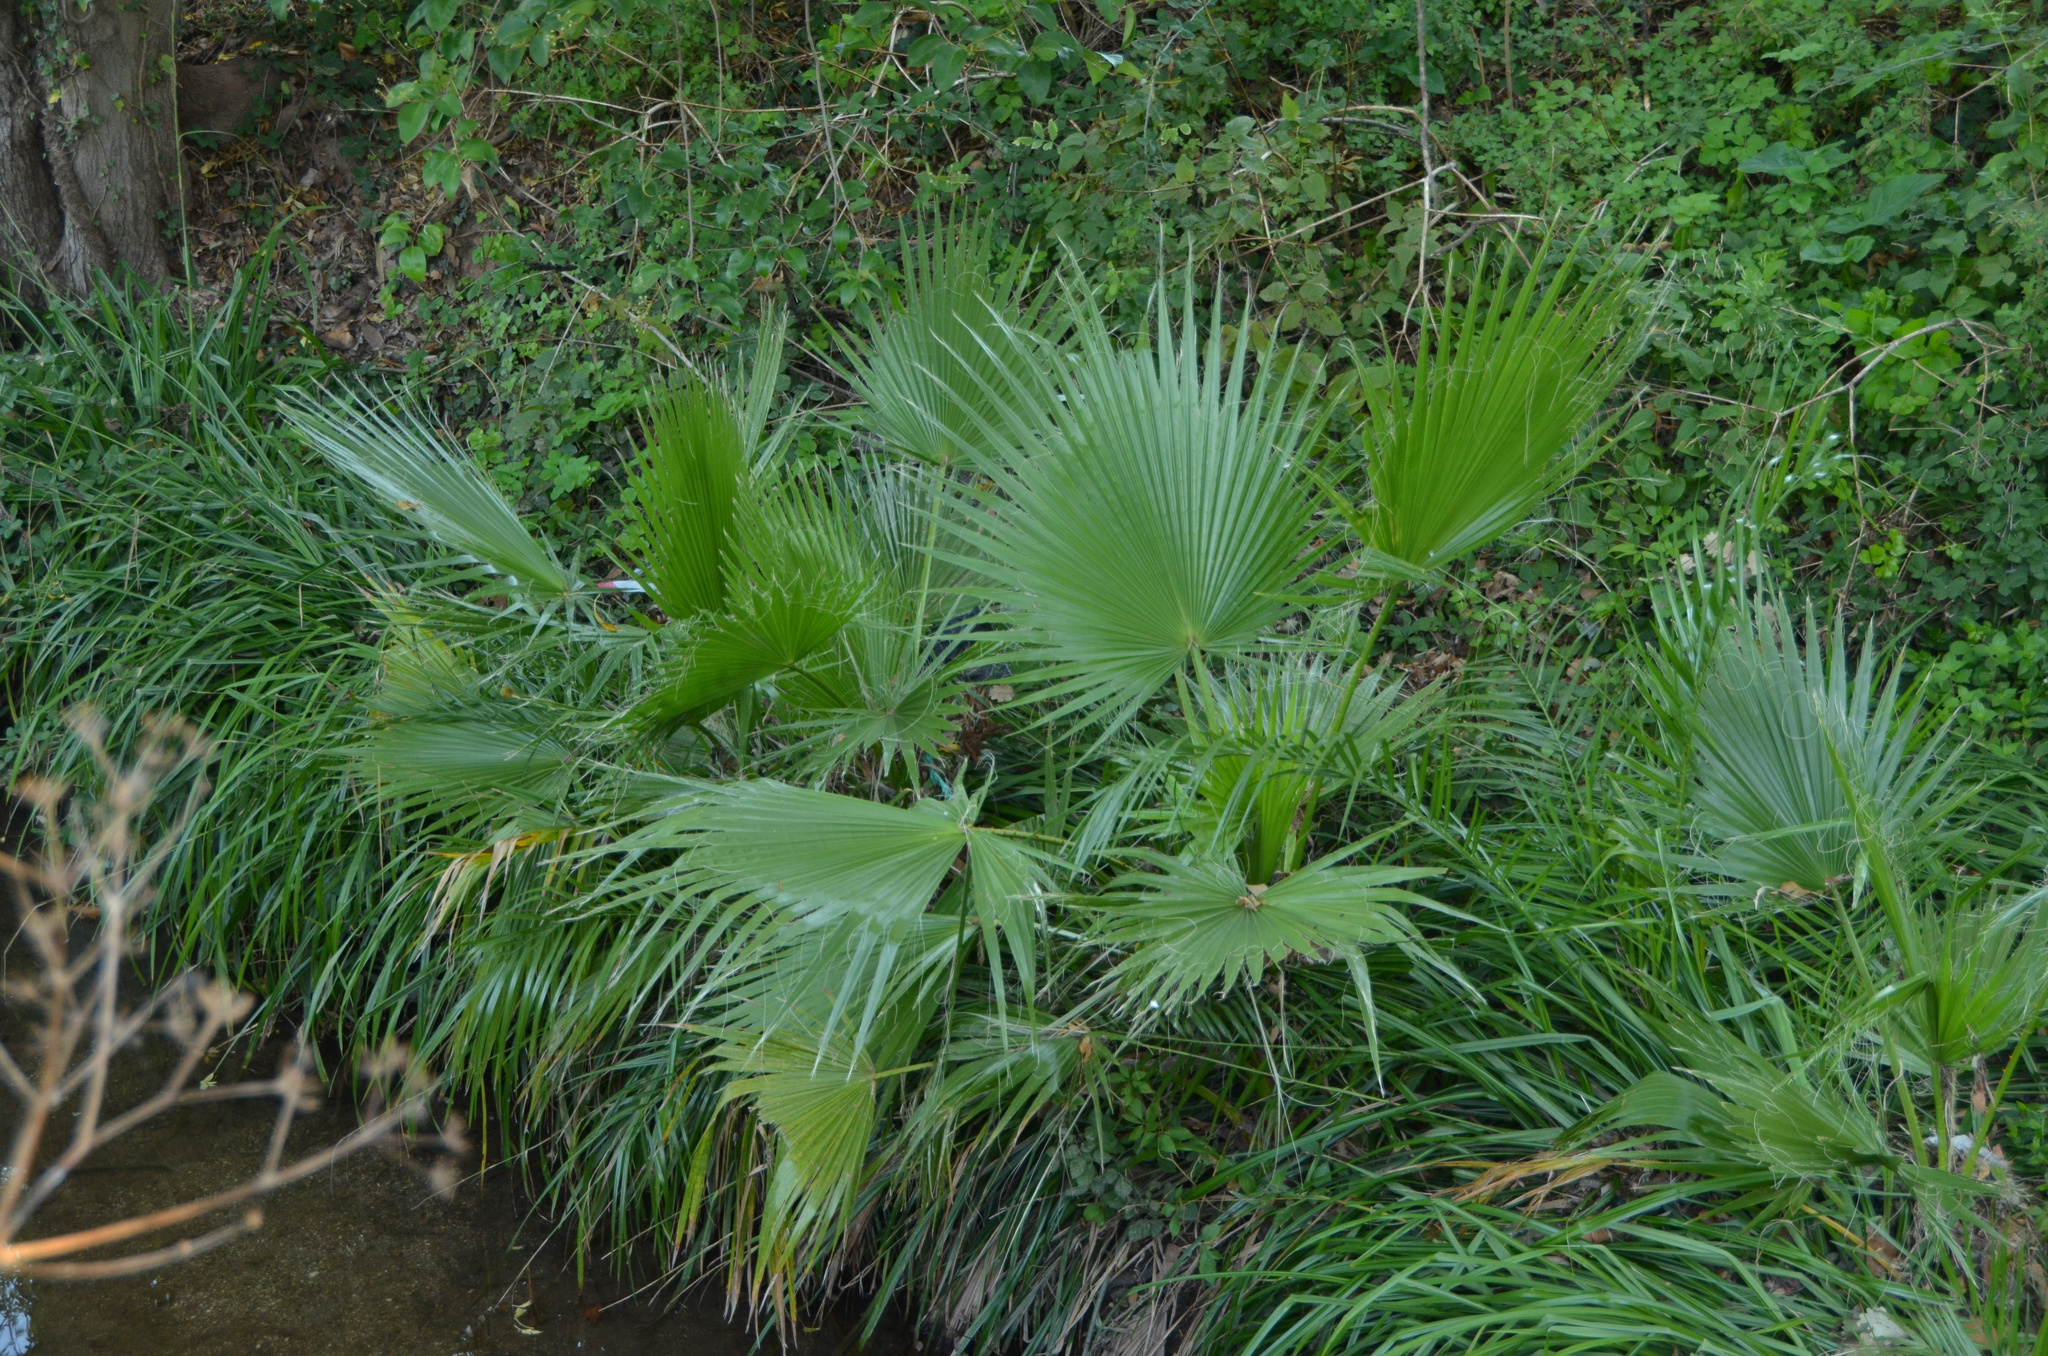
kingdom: Plantae
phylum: Tracheophyta
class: Liliopsida
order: Arecales
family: Arecaceae
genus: Washingtonia
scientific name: Washingtonia robusta
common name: Mexican fan palm
